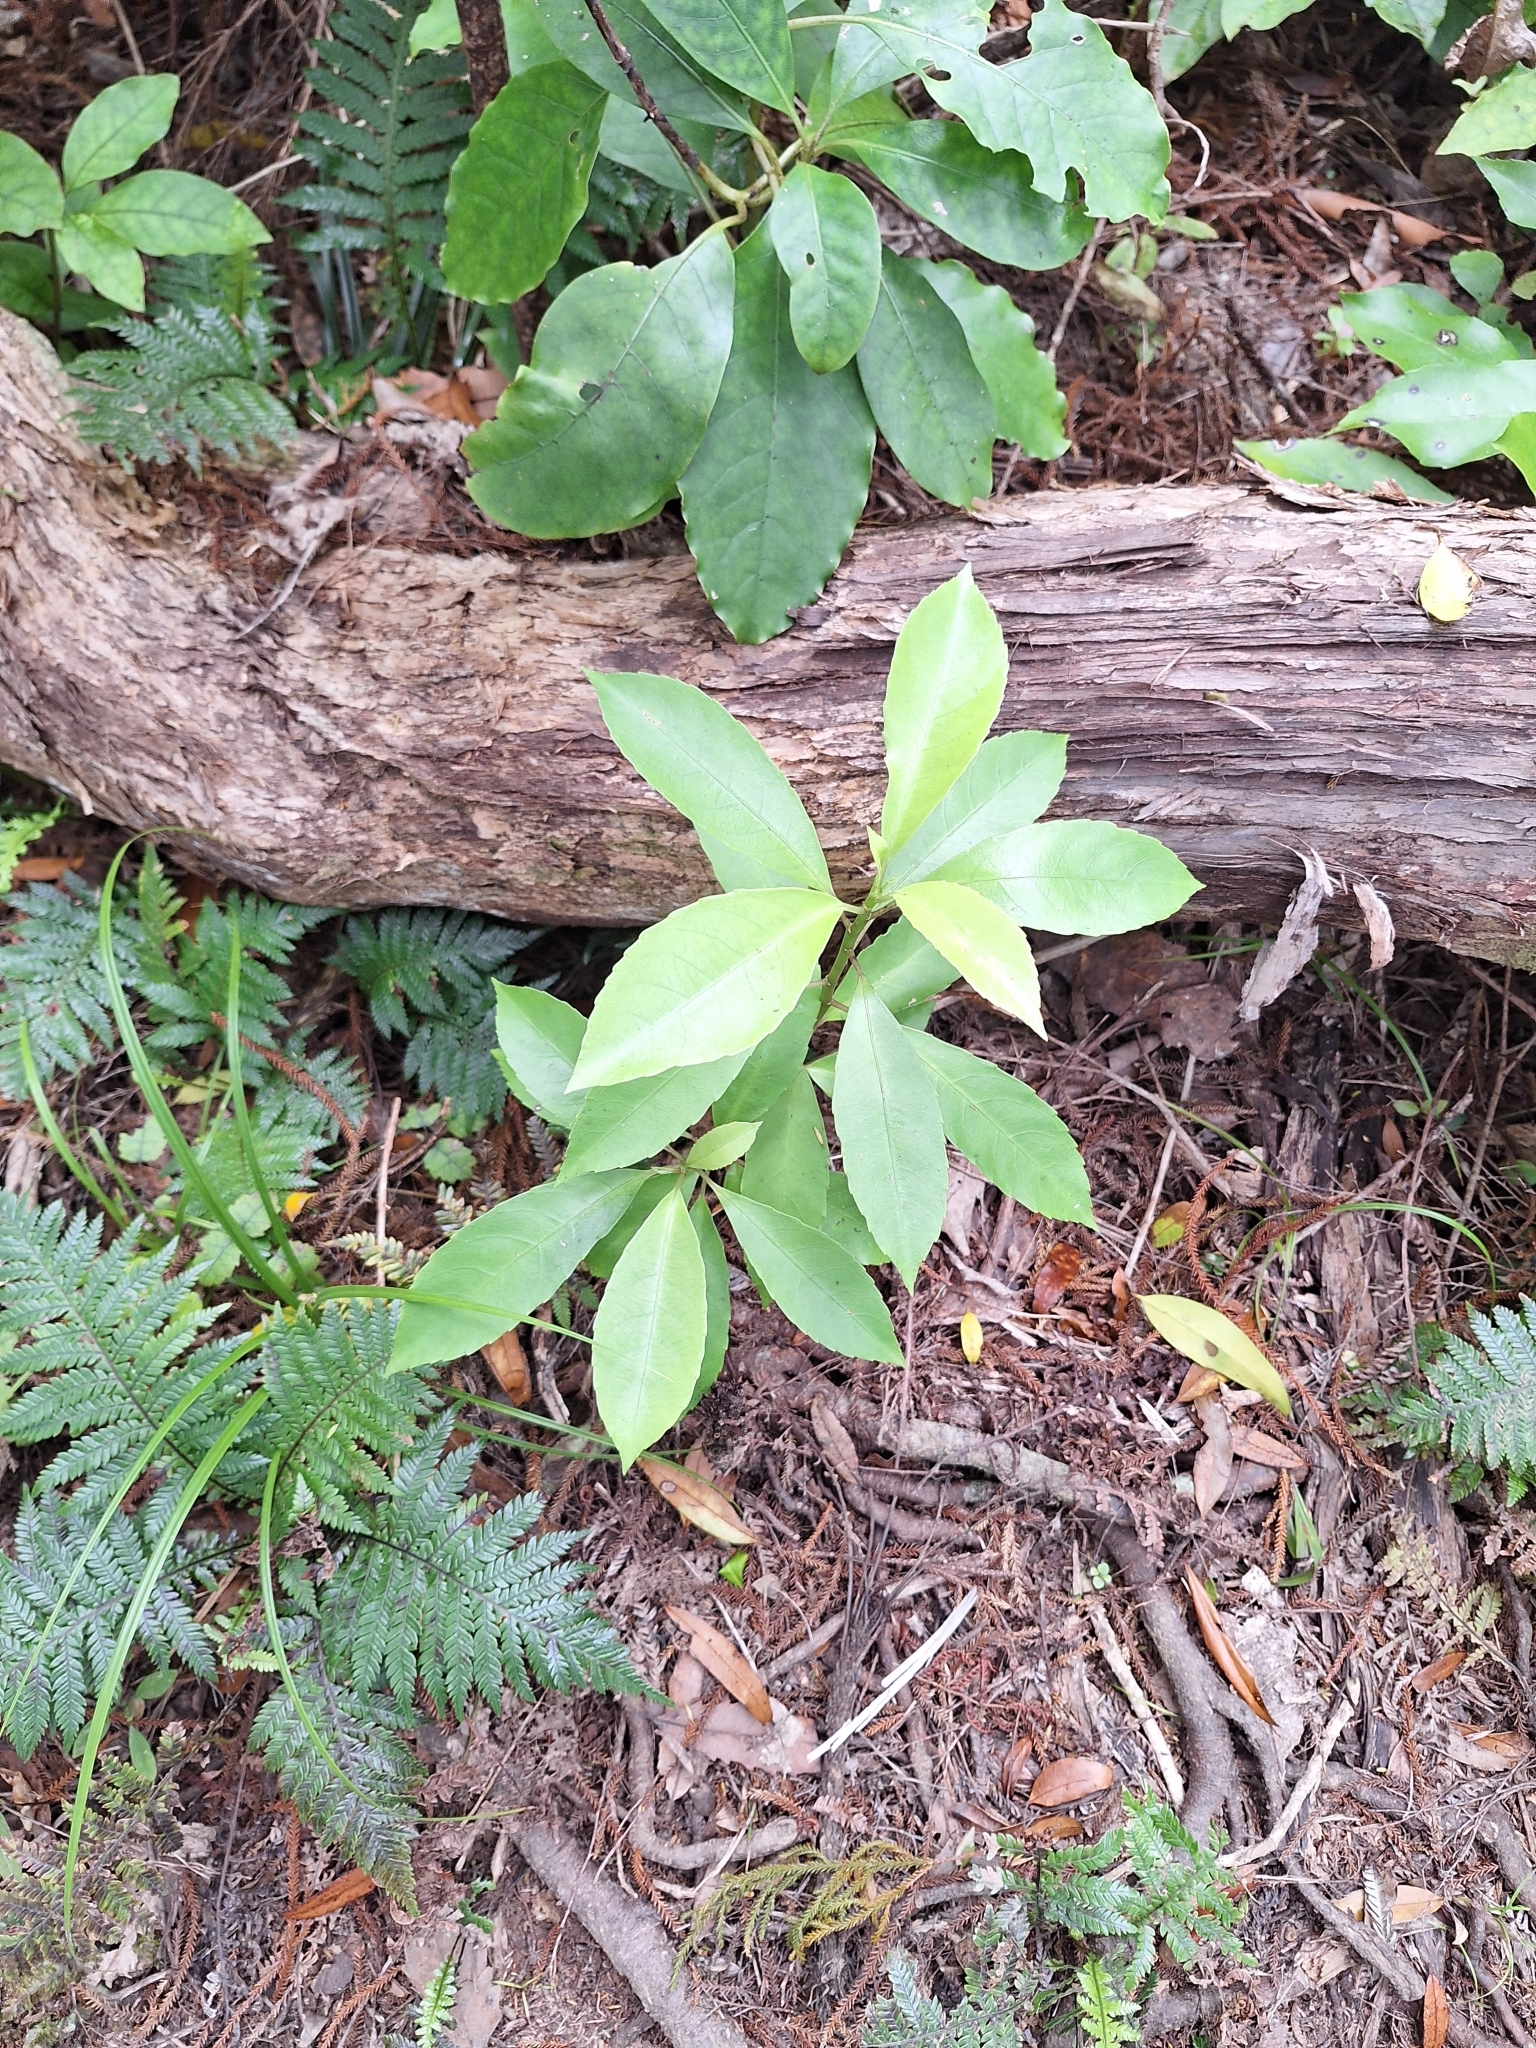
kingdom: Plantae
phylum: Tracheophyta
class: Magnoliopsida
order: Malpighiales
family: Violaceae
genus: Melicytus
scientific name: Melicytus macrophyllus
